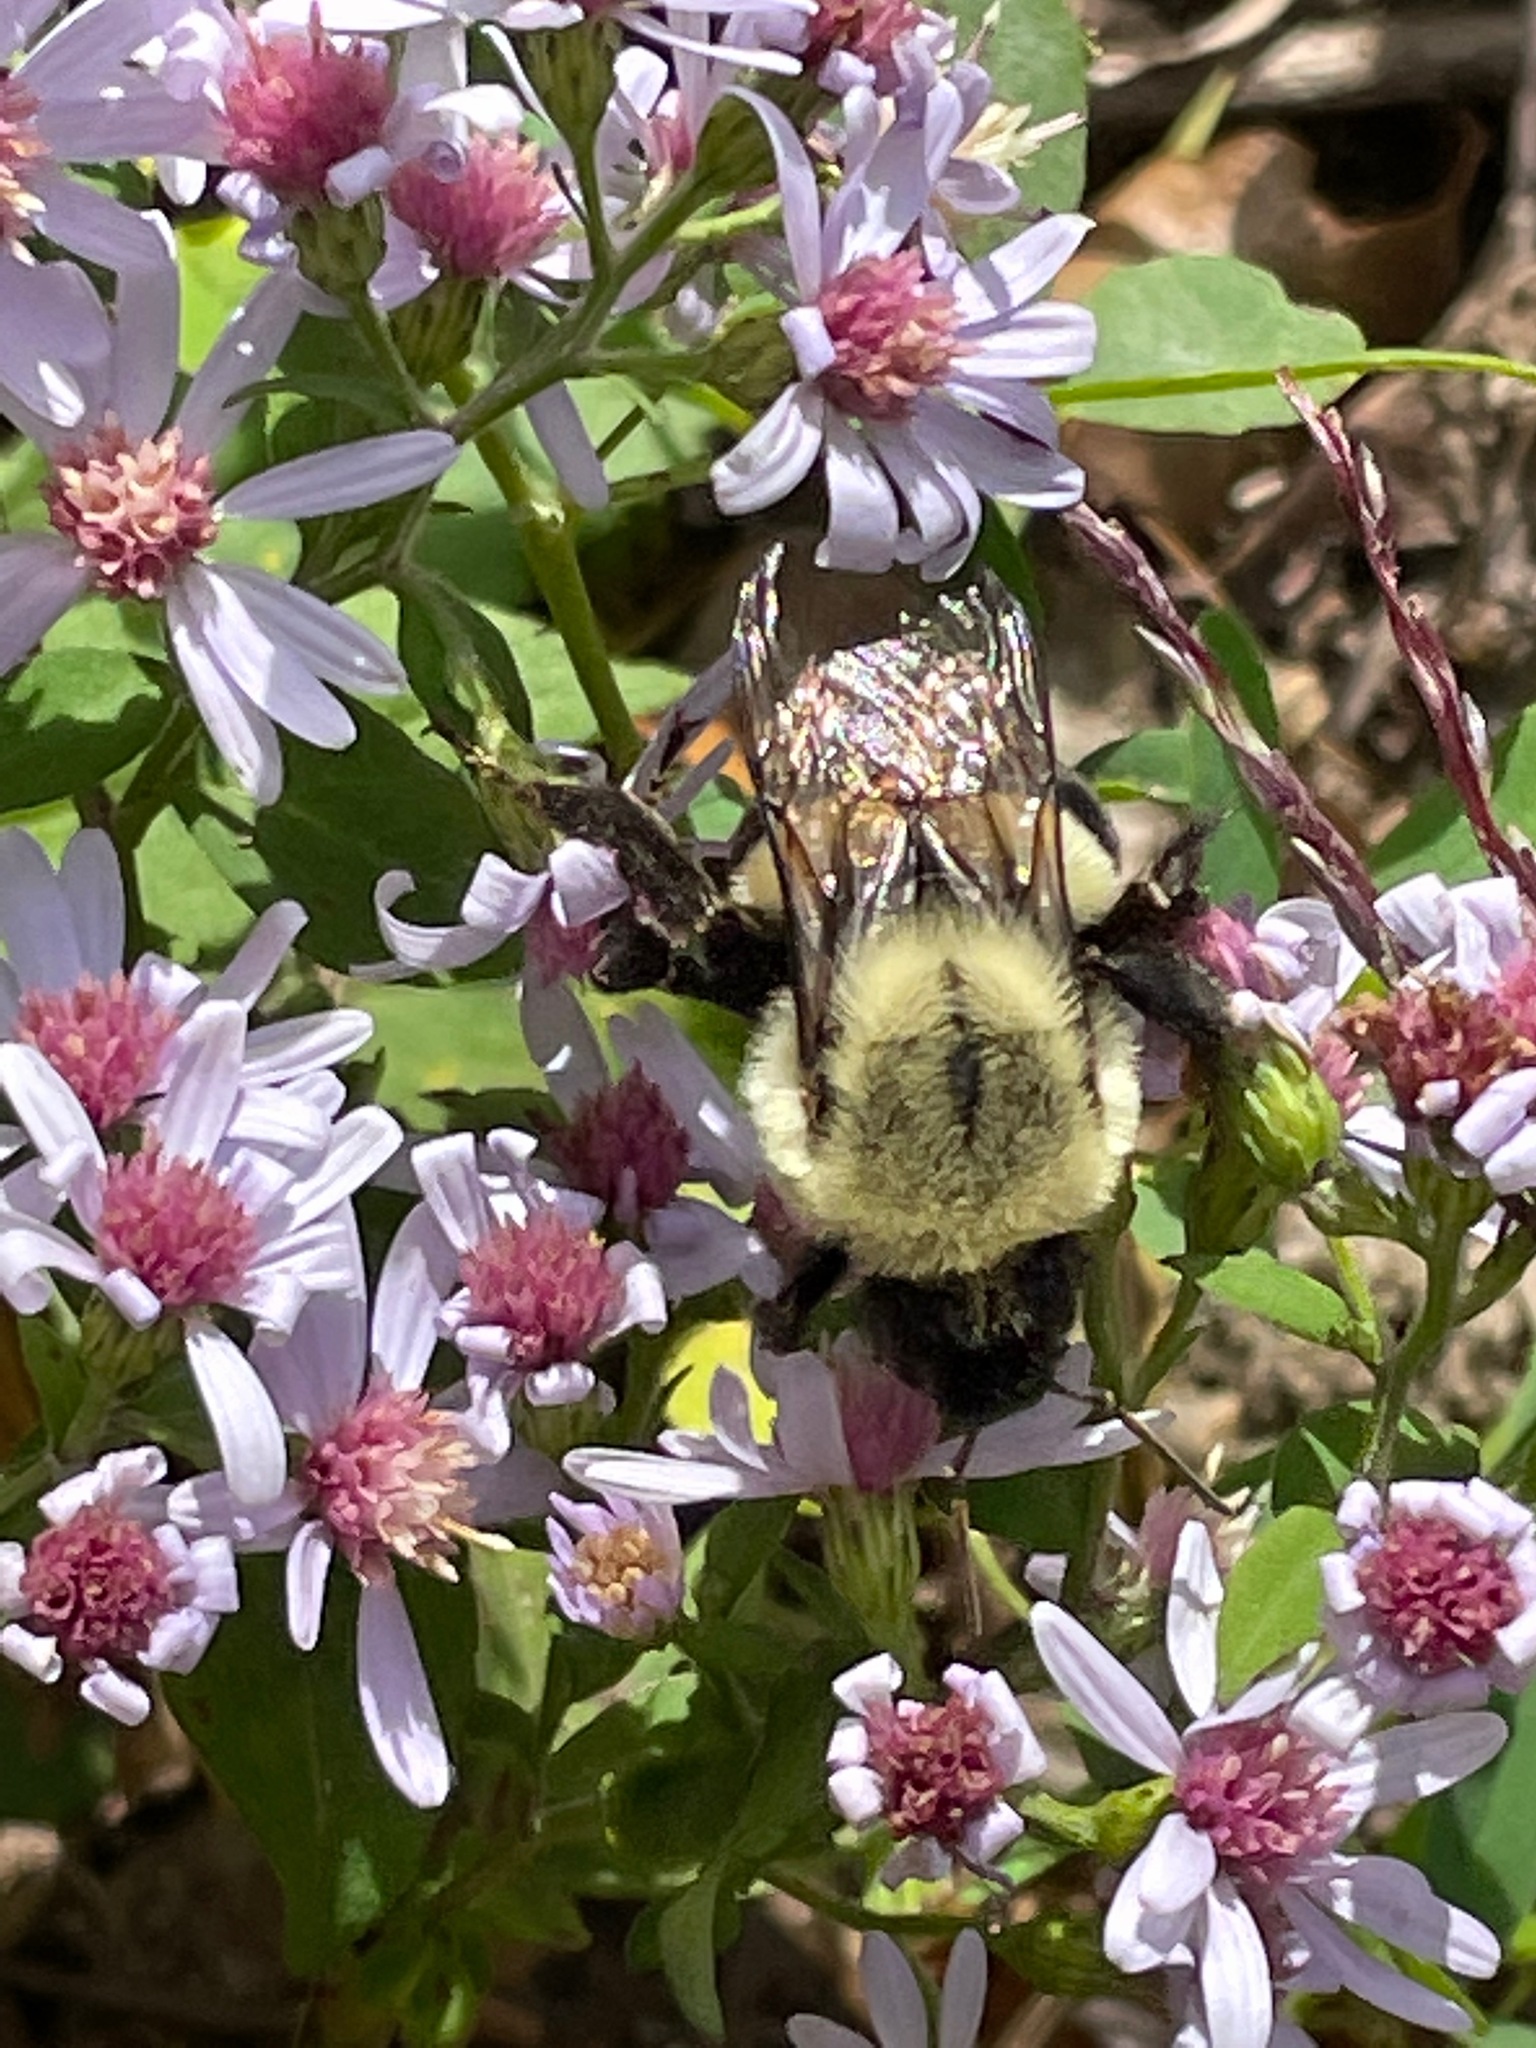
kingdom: Animalia
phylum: Arthropoda
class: Insecta
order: Hymenoptera
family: Apidae
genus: Bombus
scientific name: Bombus impatiens
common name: Common eastern bumble bee
